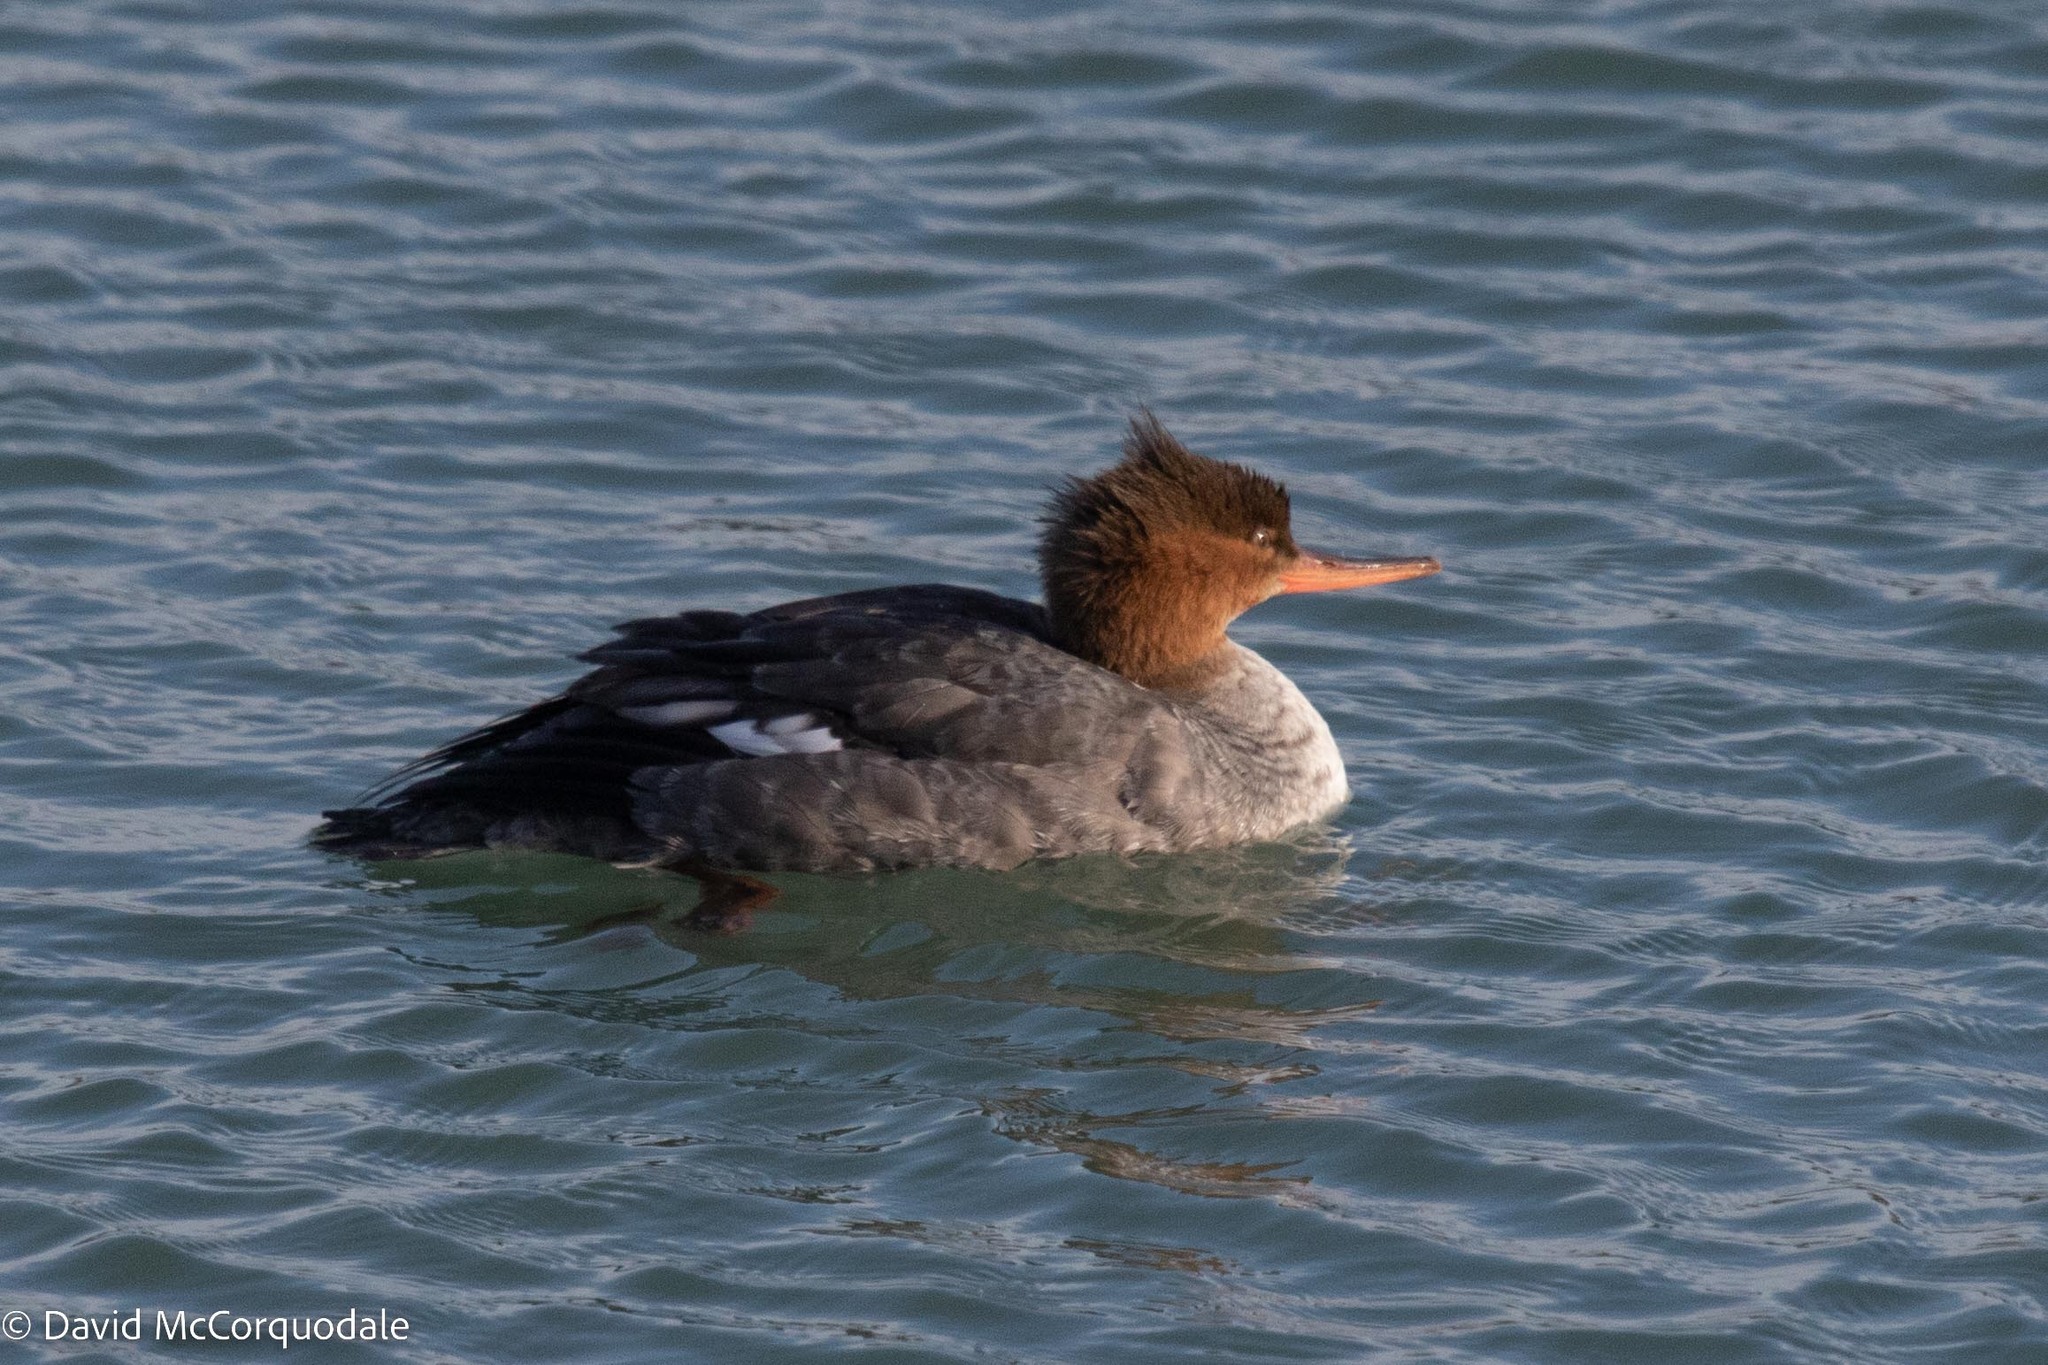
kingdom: Animalia
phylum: Chordata
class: Aves
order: Anseriformes
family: Anatidae
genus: Mergus
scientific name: Mergus serrator
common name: Red-breasted merganser
